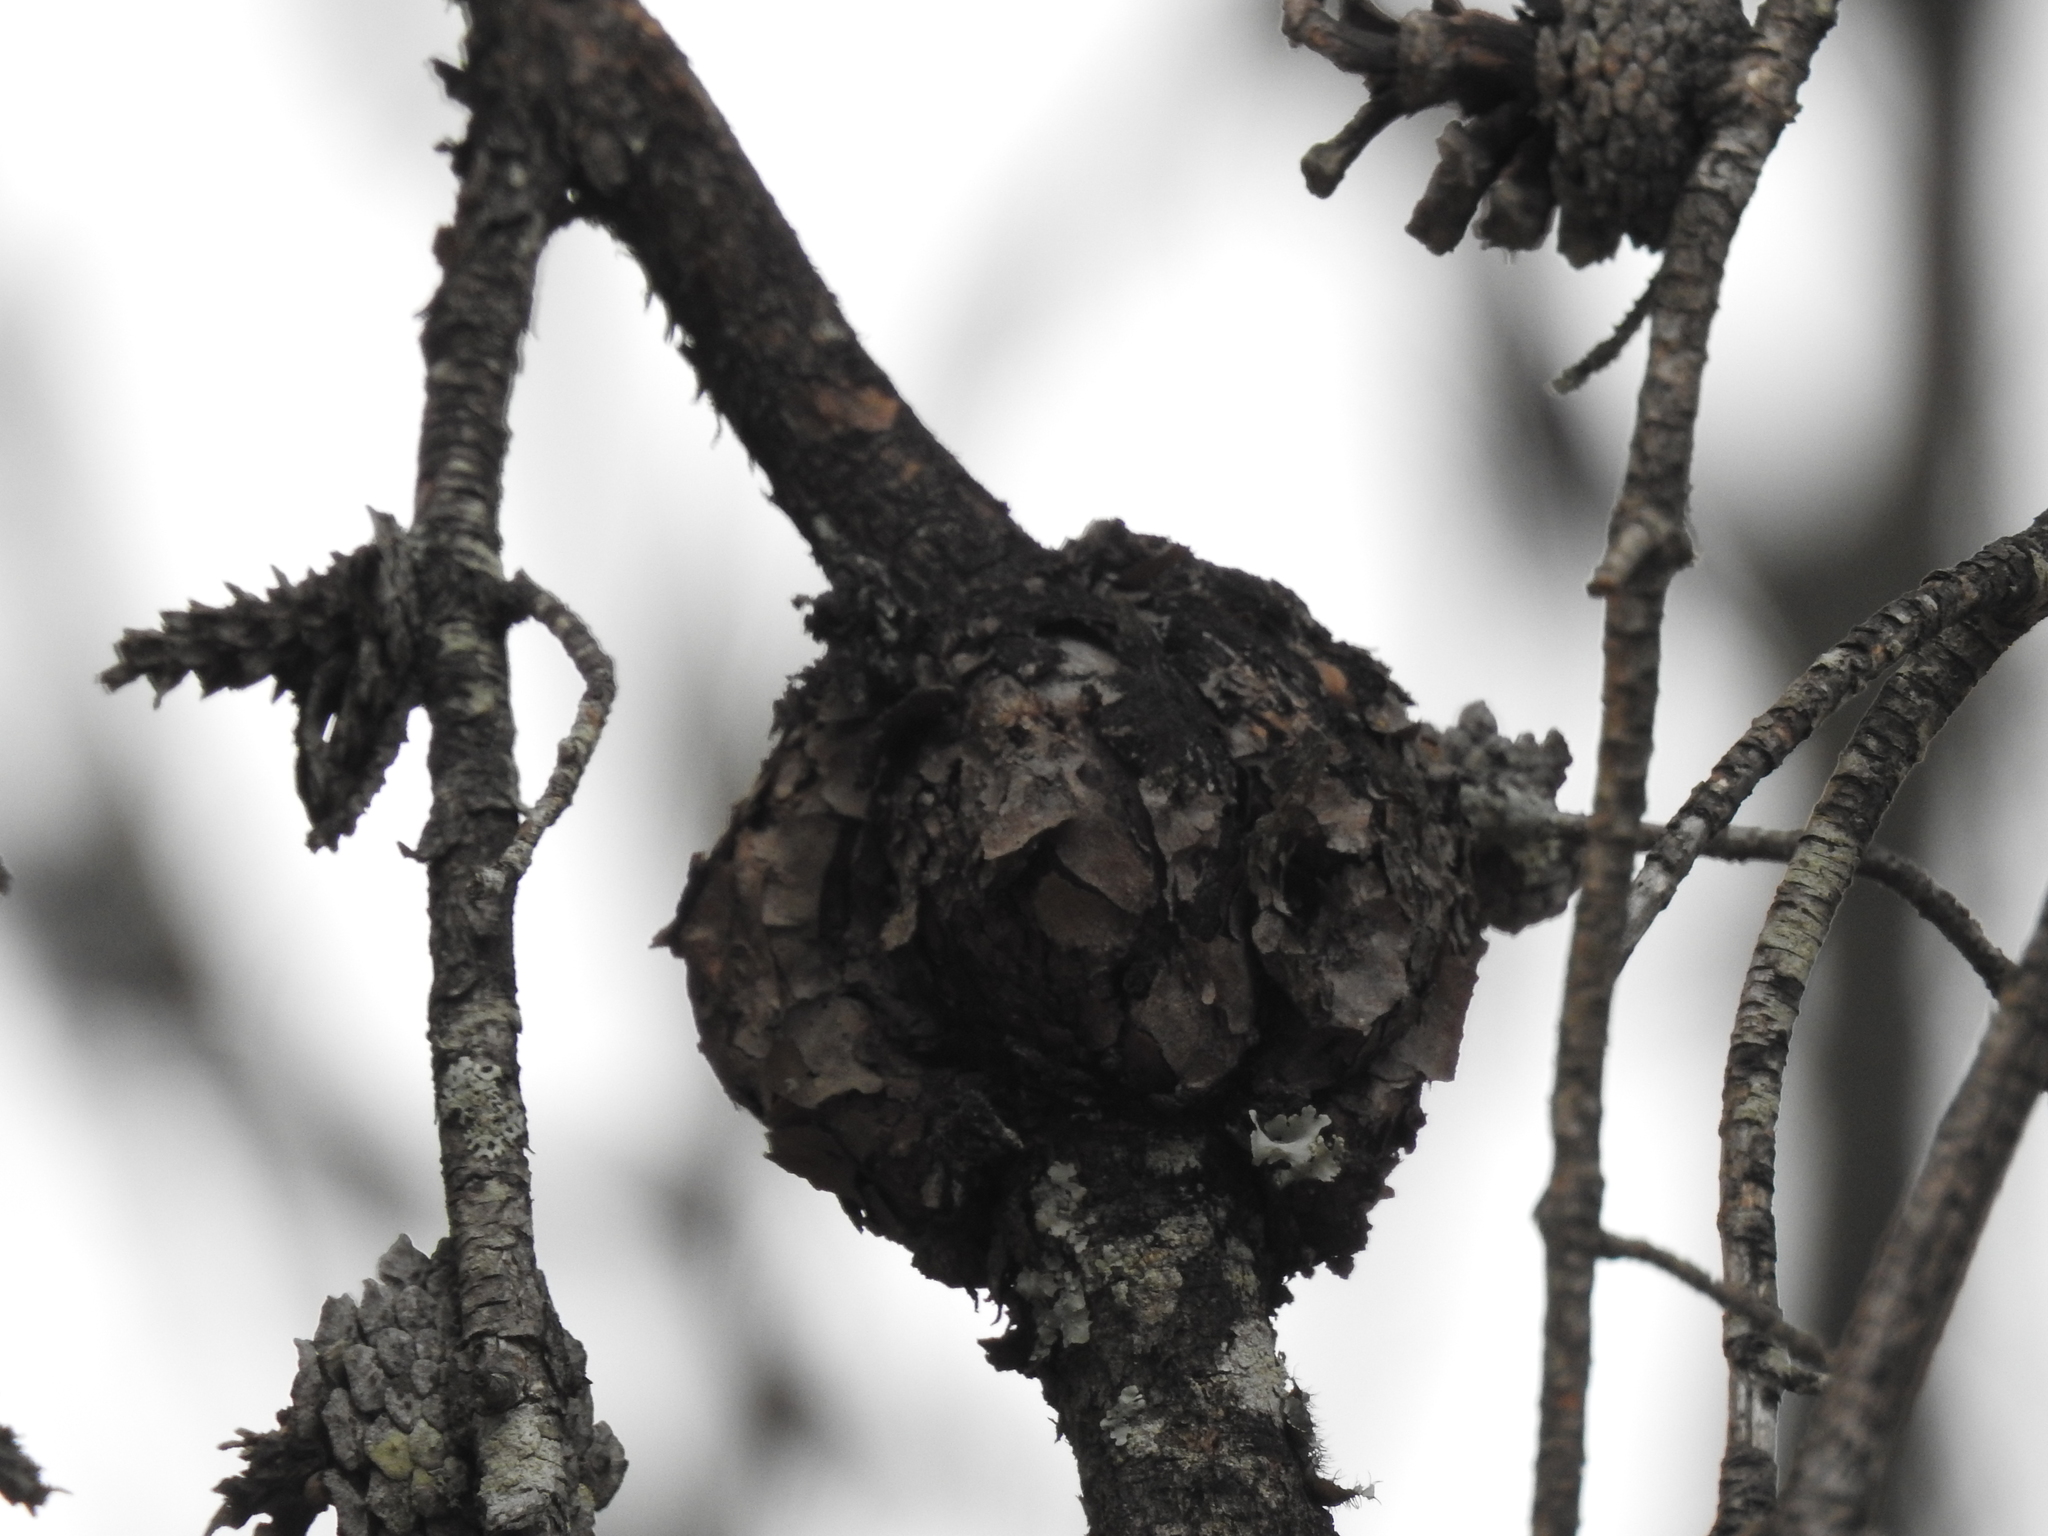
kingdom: Fungi
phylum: Basidiomycota
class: Pucciniomycetes
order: Pucciniales
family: Cronartiaceae
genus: Cronartium
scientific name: Cronartium quercuum
